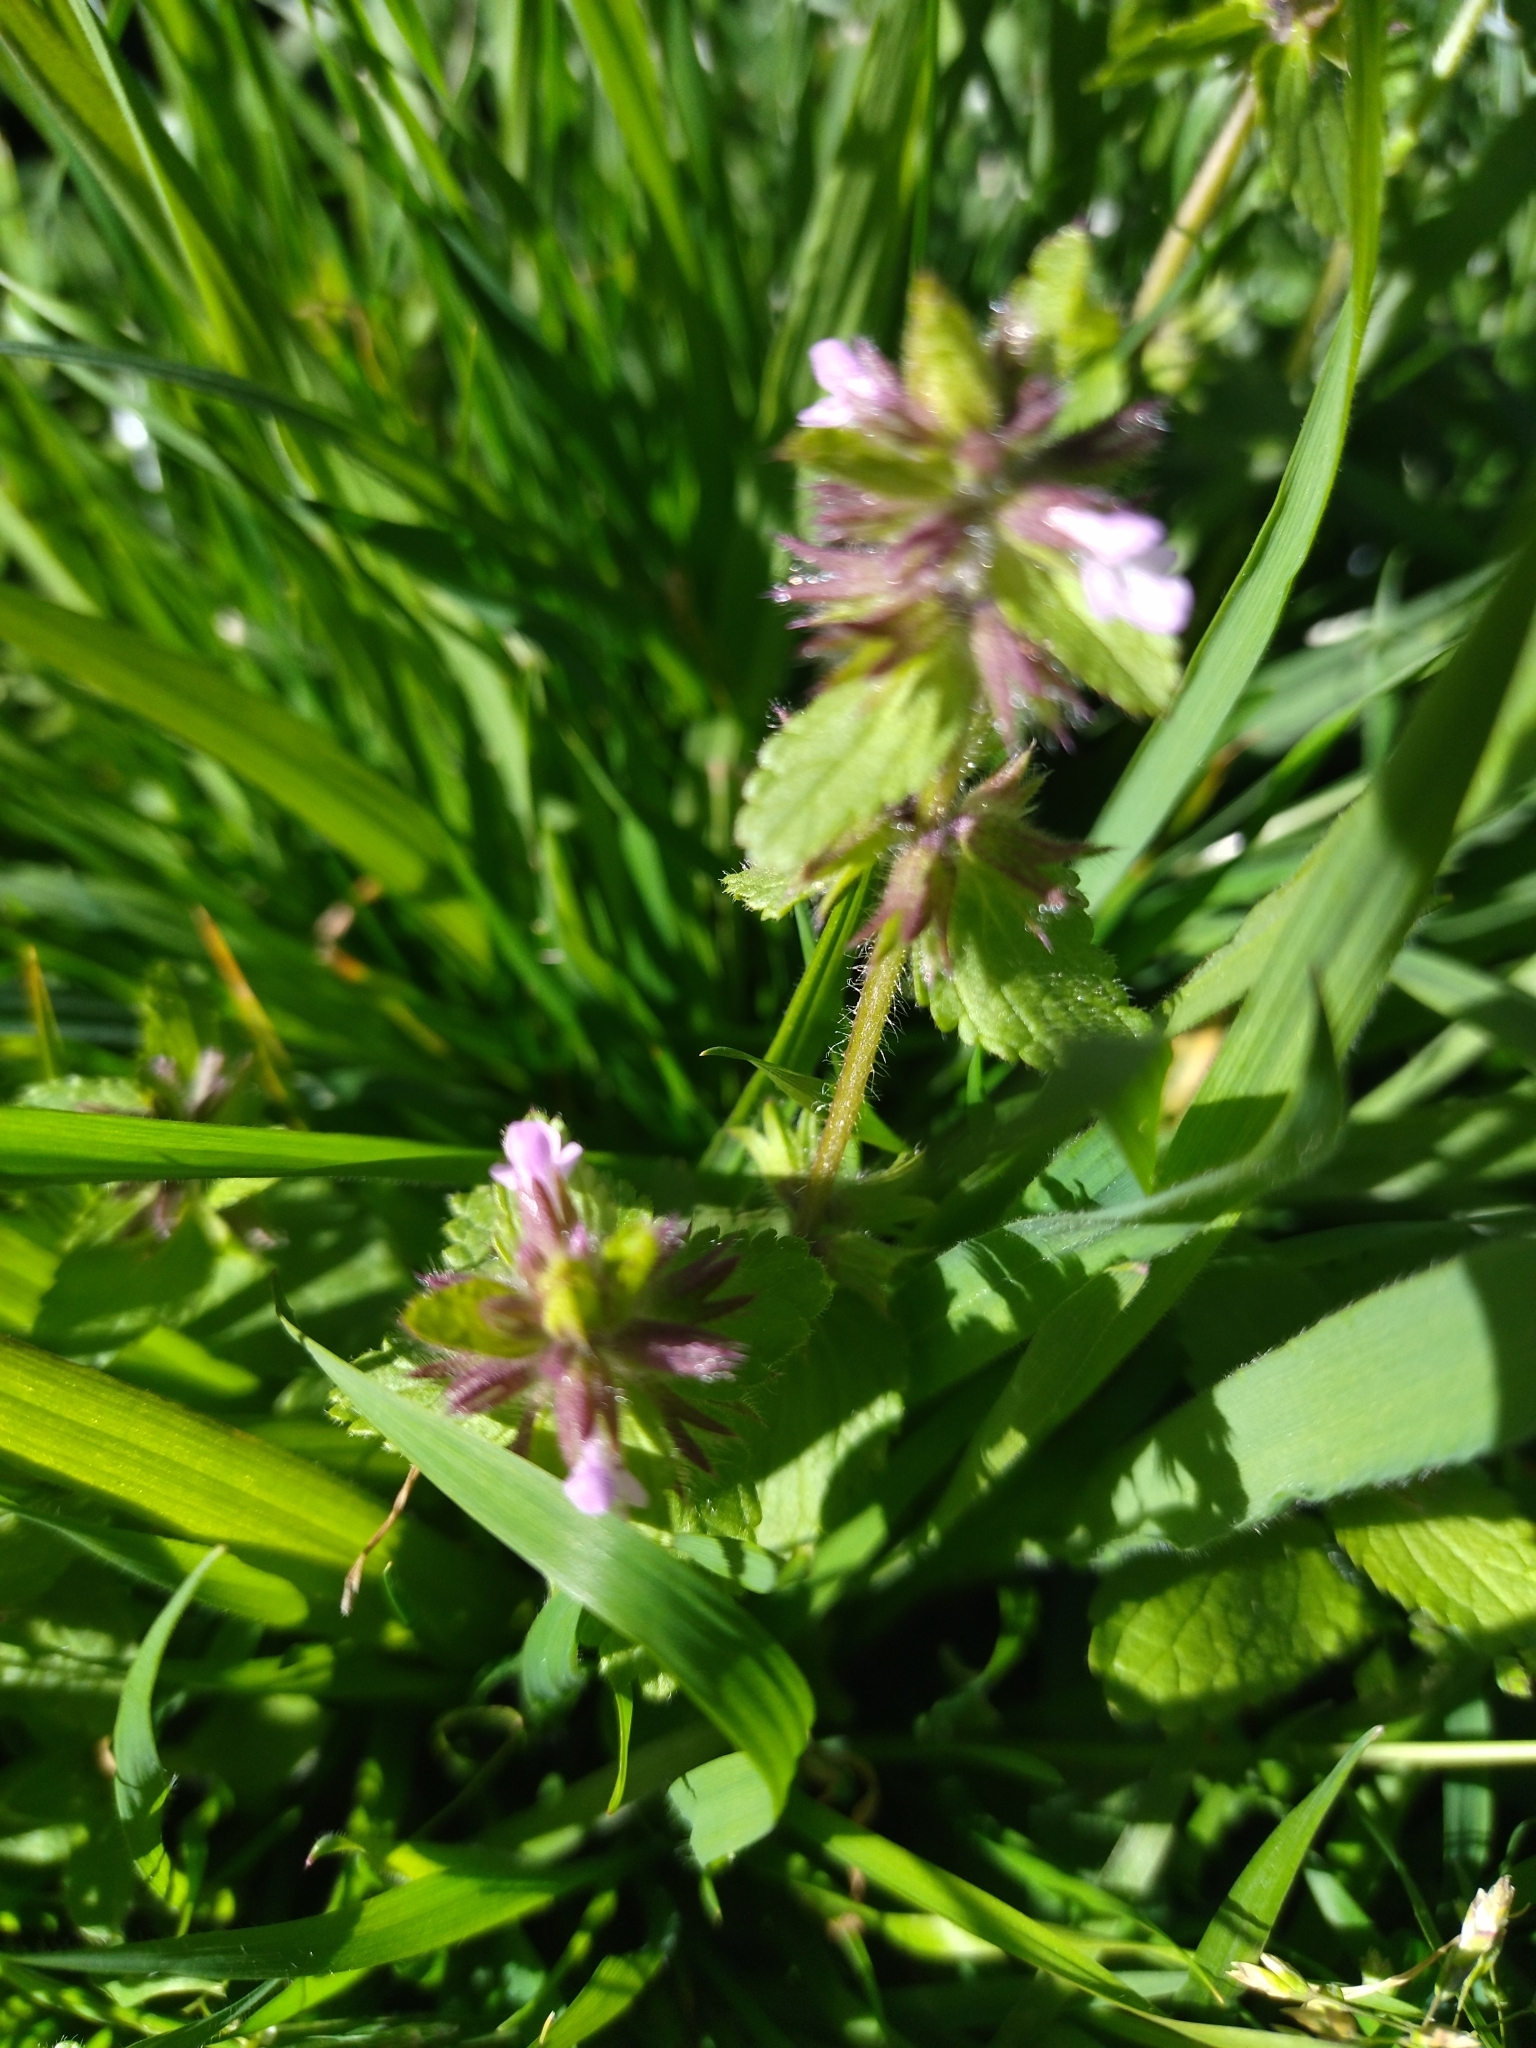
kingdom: Plantae
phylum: Tracheophyta
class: Magnoliopsida
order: Lamiales
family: Lamiaceae
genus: Stachys
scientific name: Stachys arvensis
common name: Field woundwort
